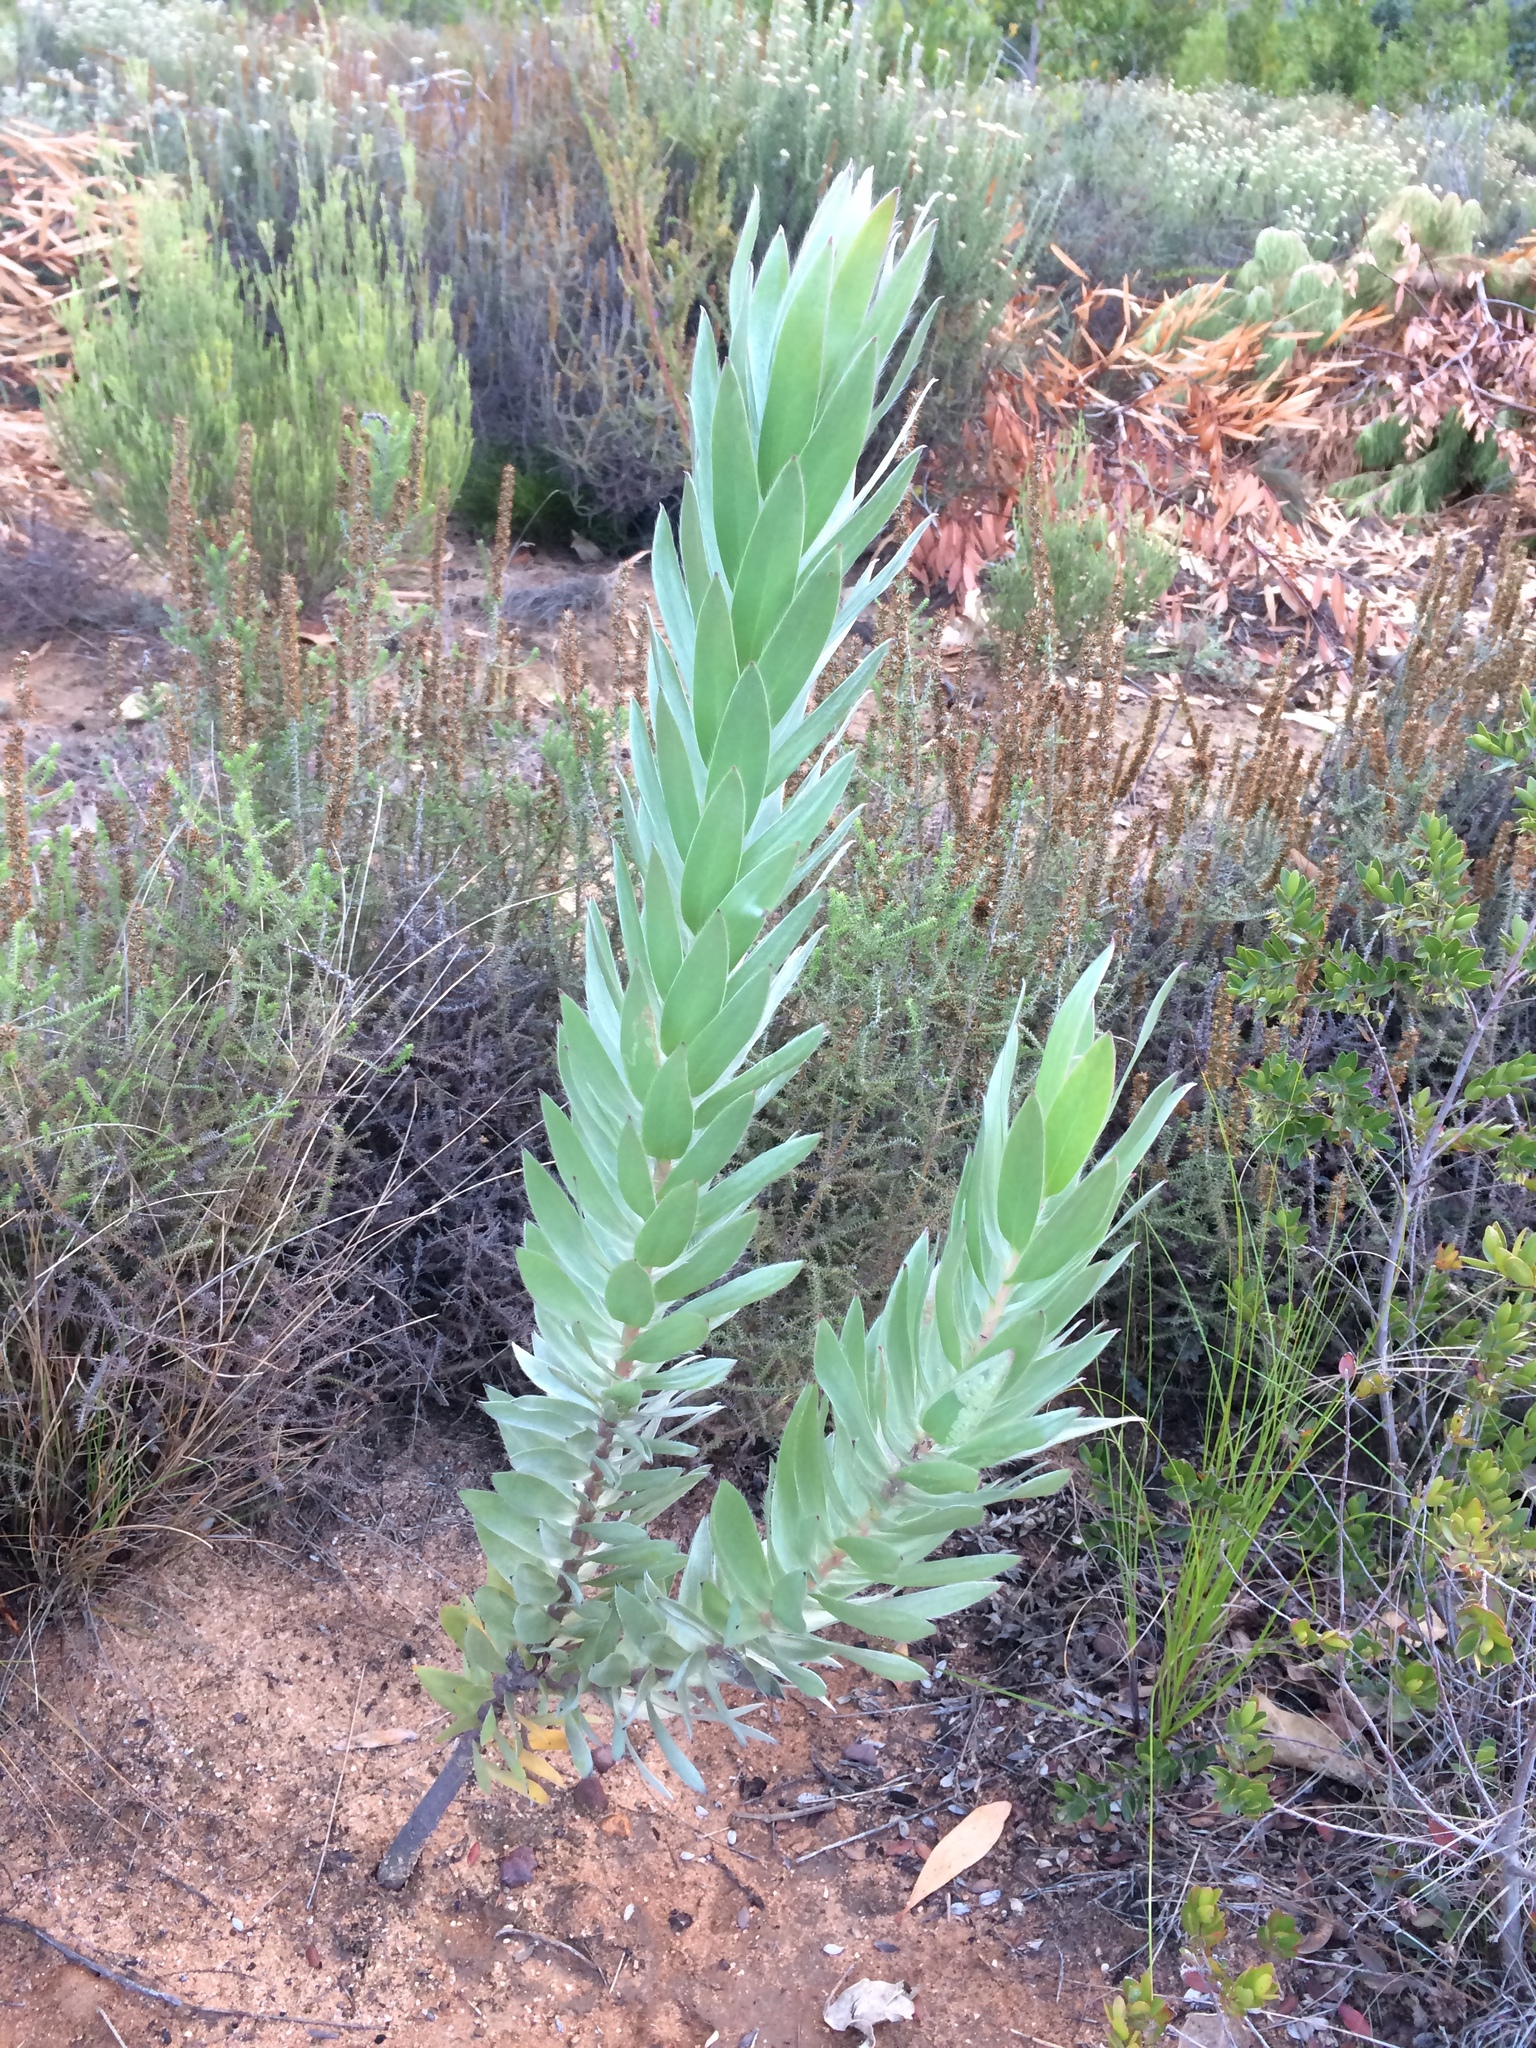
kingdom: Plantae
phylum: Tracheophyta
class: Magnoliopsida
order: Proteales
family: Proteaceae
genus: Leucadendron
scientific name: Leucadendron argenteum
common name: Cape silver tree
